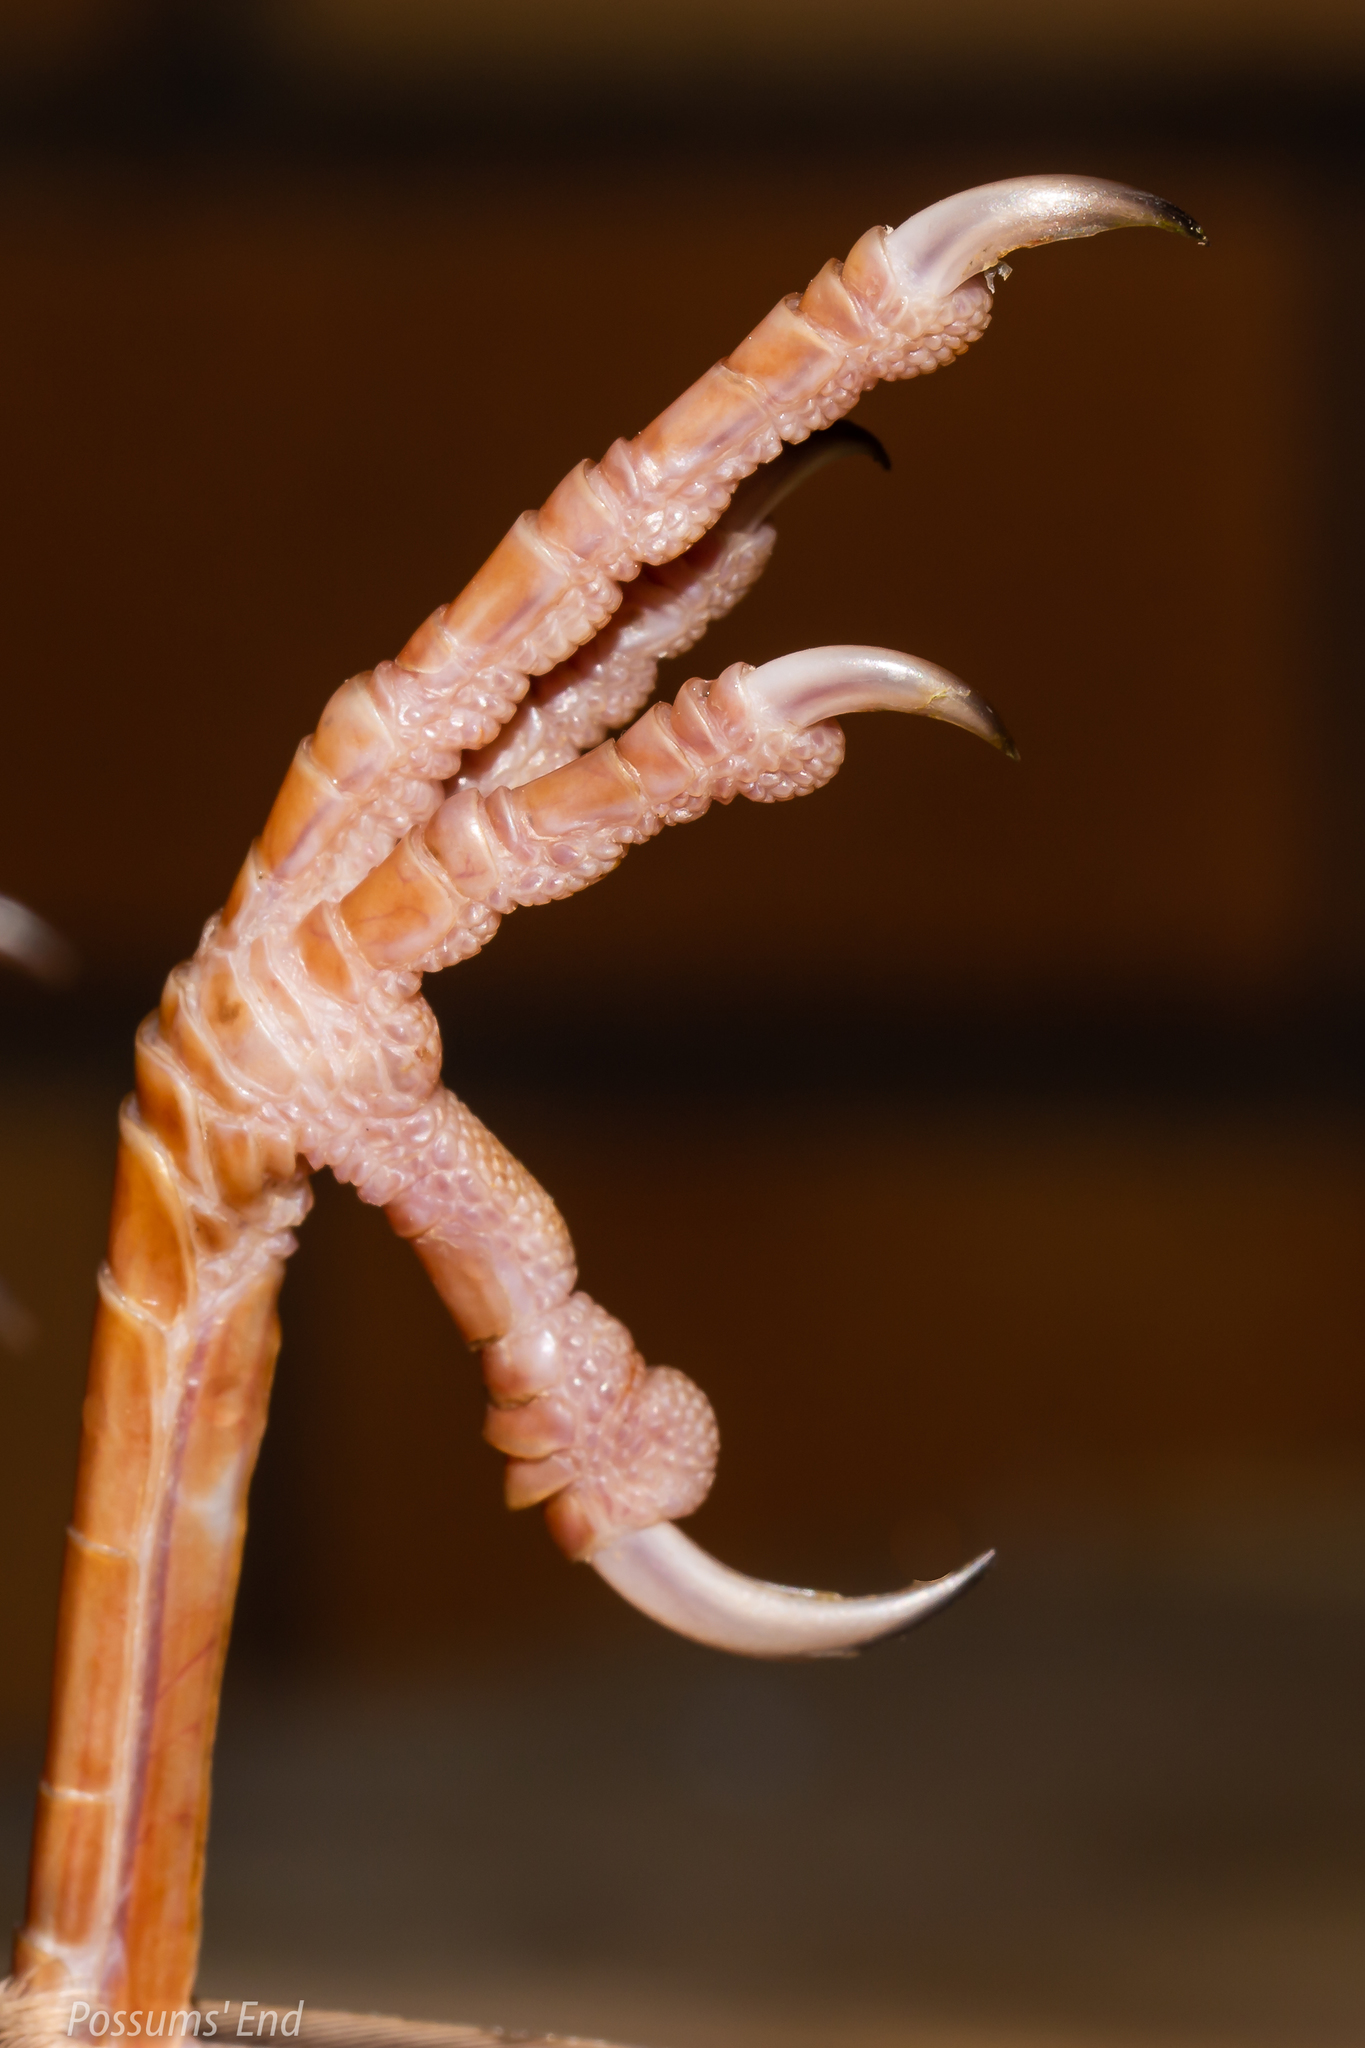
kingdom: Animalia
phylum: Chordata
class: Aves
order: Passeriformes
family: Sturnidae
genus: Sturnus
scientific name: Sturnus vulgaris
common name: Common starling
